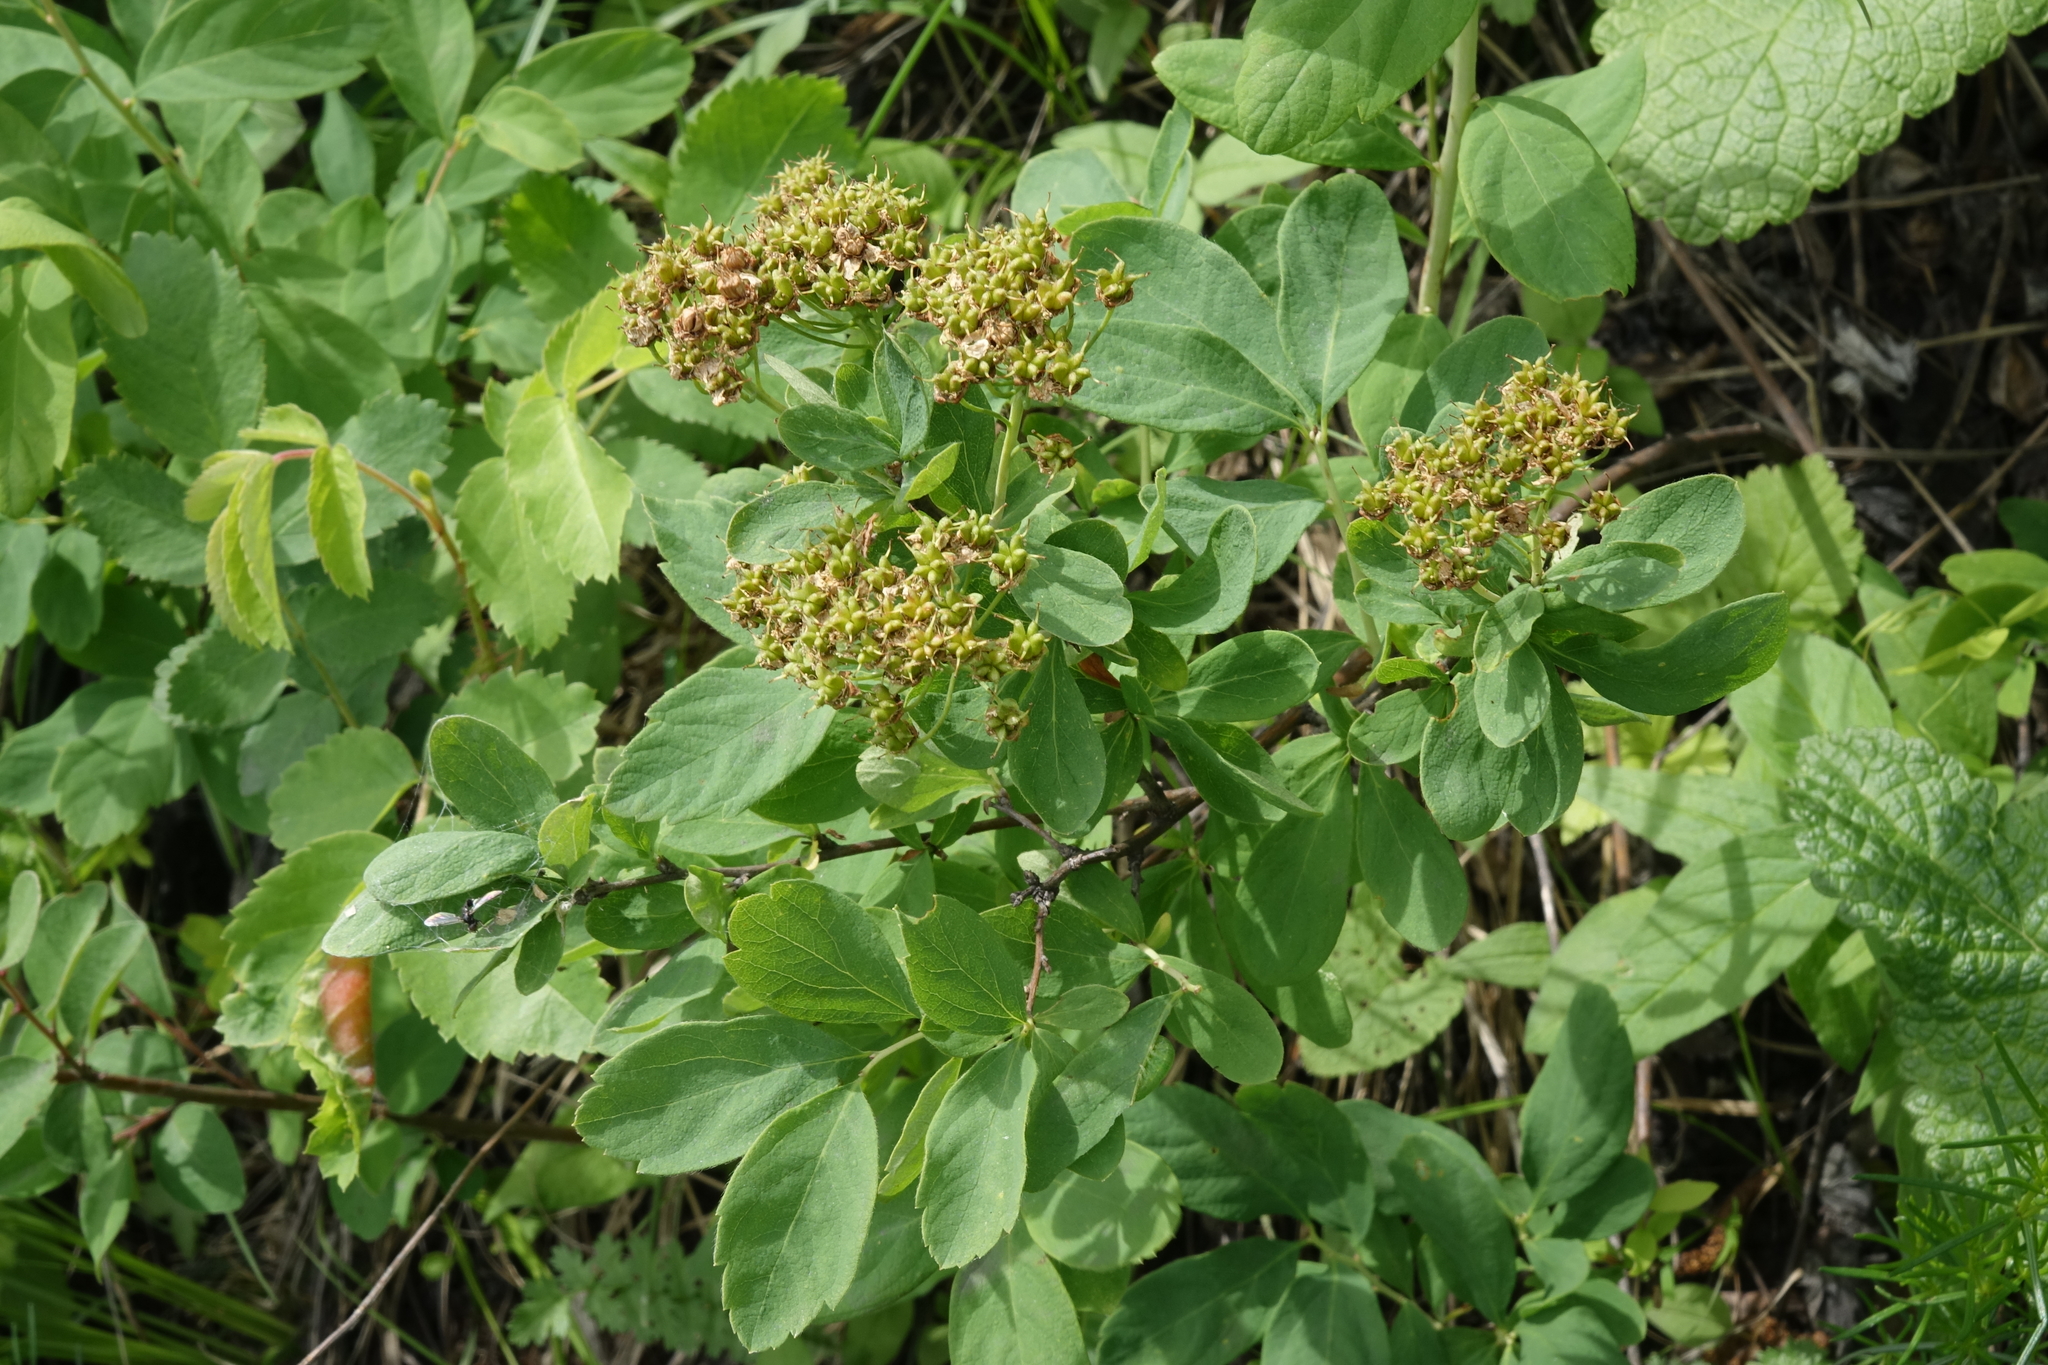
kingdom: Plantae
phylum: Tracheophyta
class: Magnoliopsida
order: Malpighiales
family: Euphorbiaceae
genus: Euphorbia
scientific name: Euphorbia pilosa
